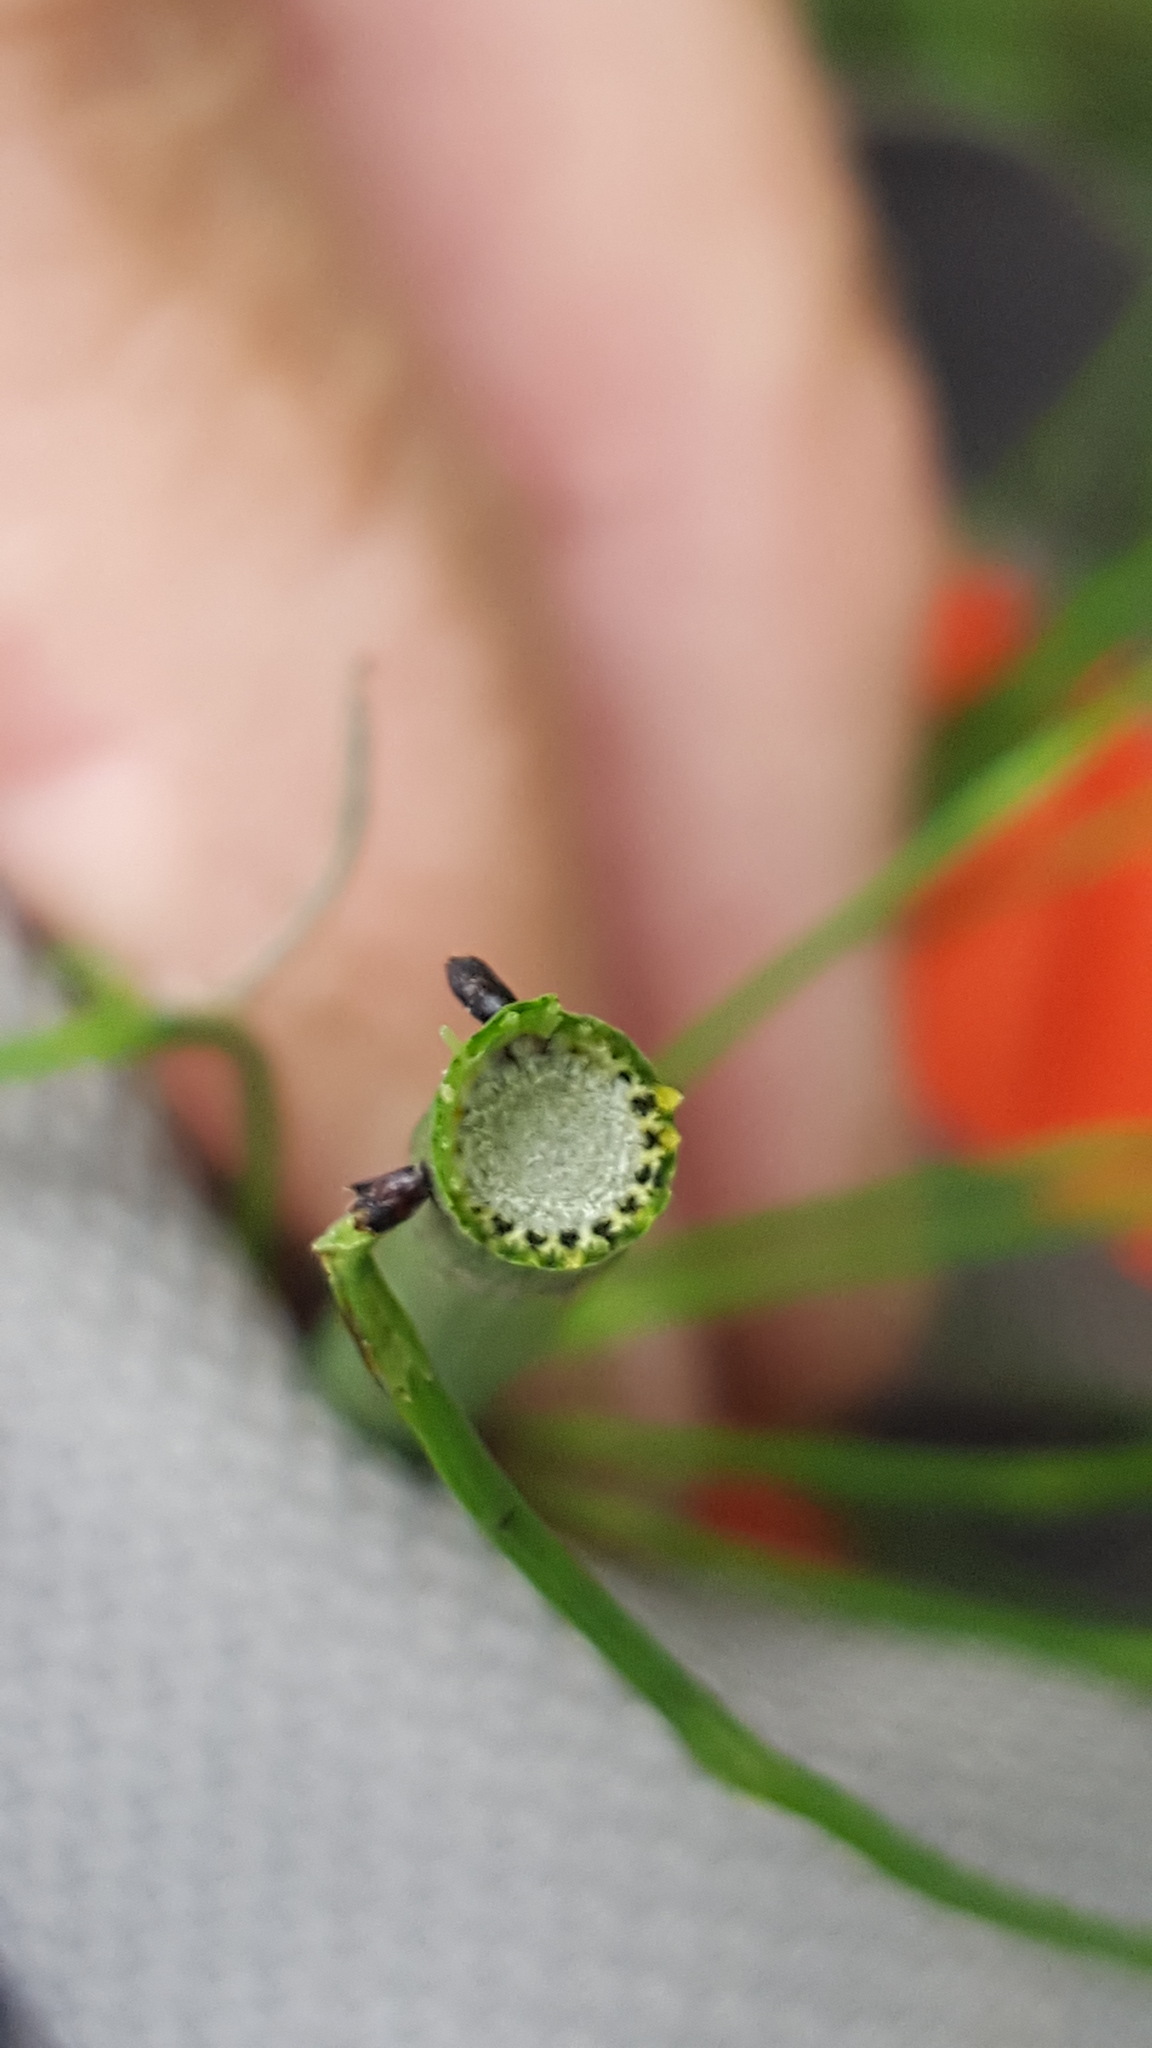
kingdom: Plantae
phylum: Tracheophyta
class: Polypodiopsida
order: Equisetales
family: Equisetaceae
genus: Equisetum
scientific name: Equisetum fluviatile
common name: Water horsetail
